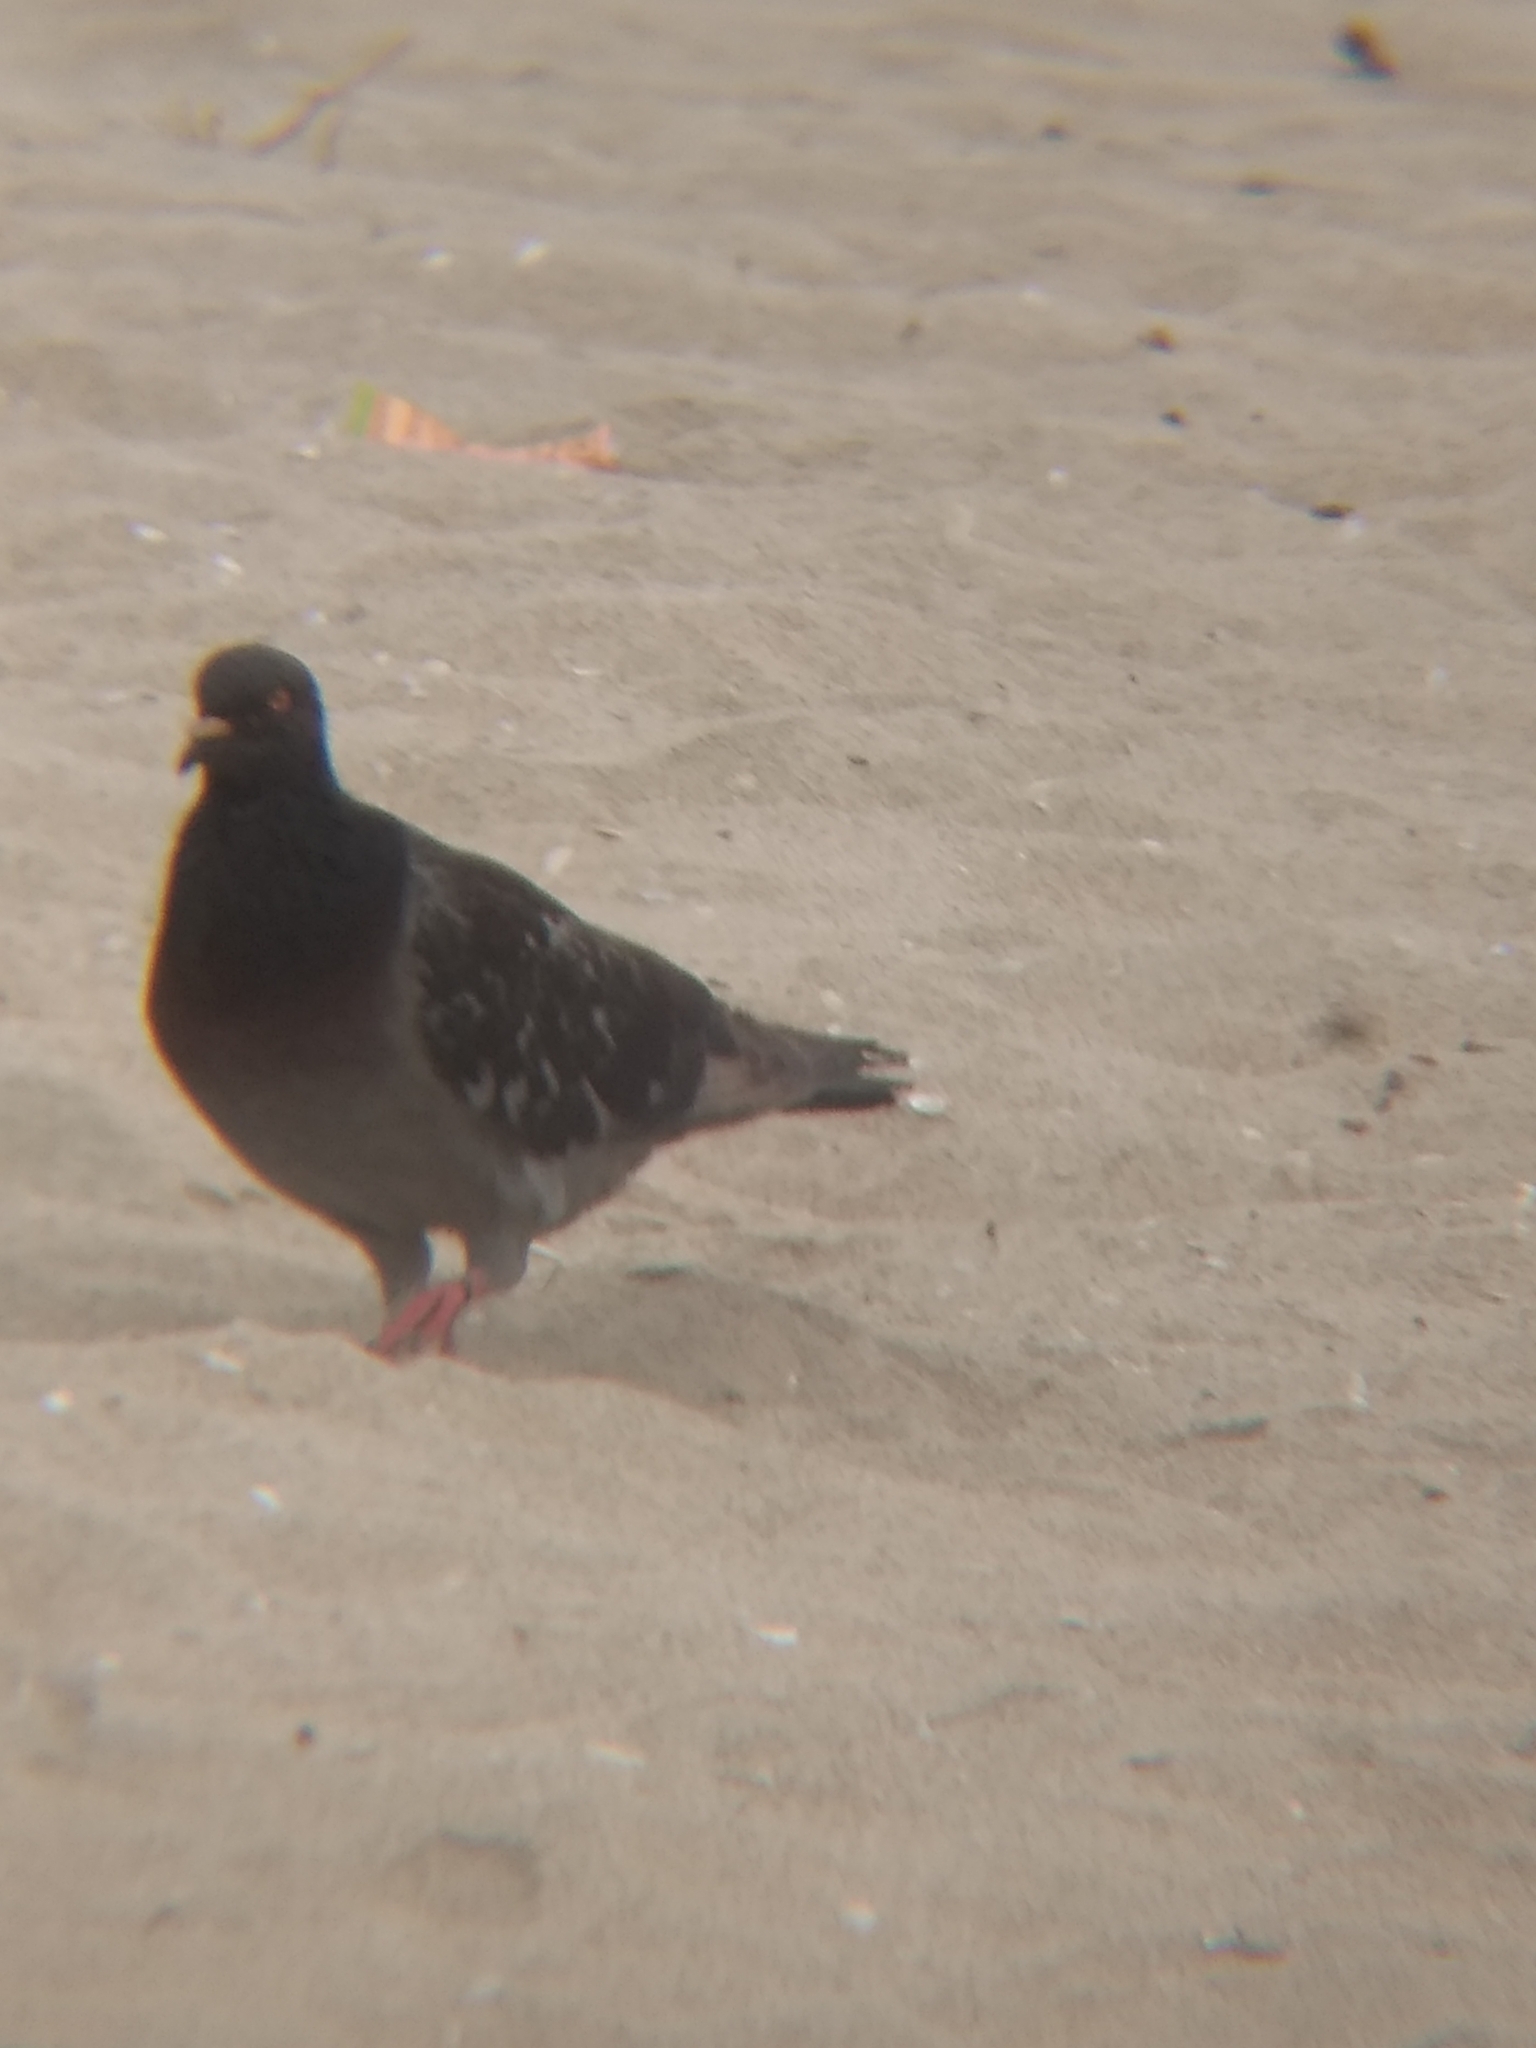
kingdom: Animalia
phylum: Chordata
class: Aves
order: Columbiformes
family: Columbidae
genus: Columba
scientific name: Columba livia
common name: Rock pigeon
